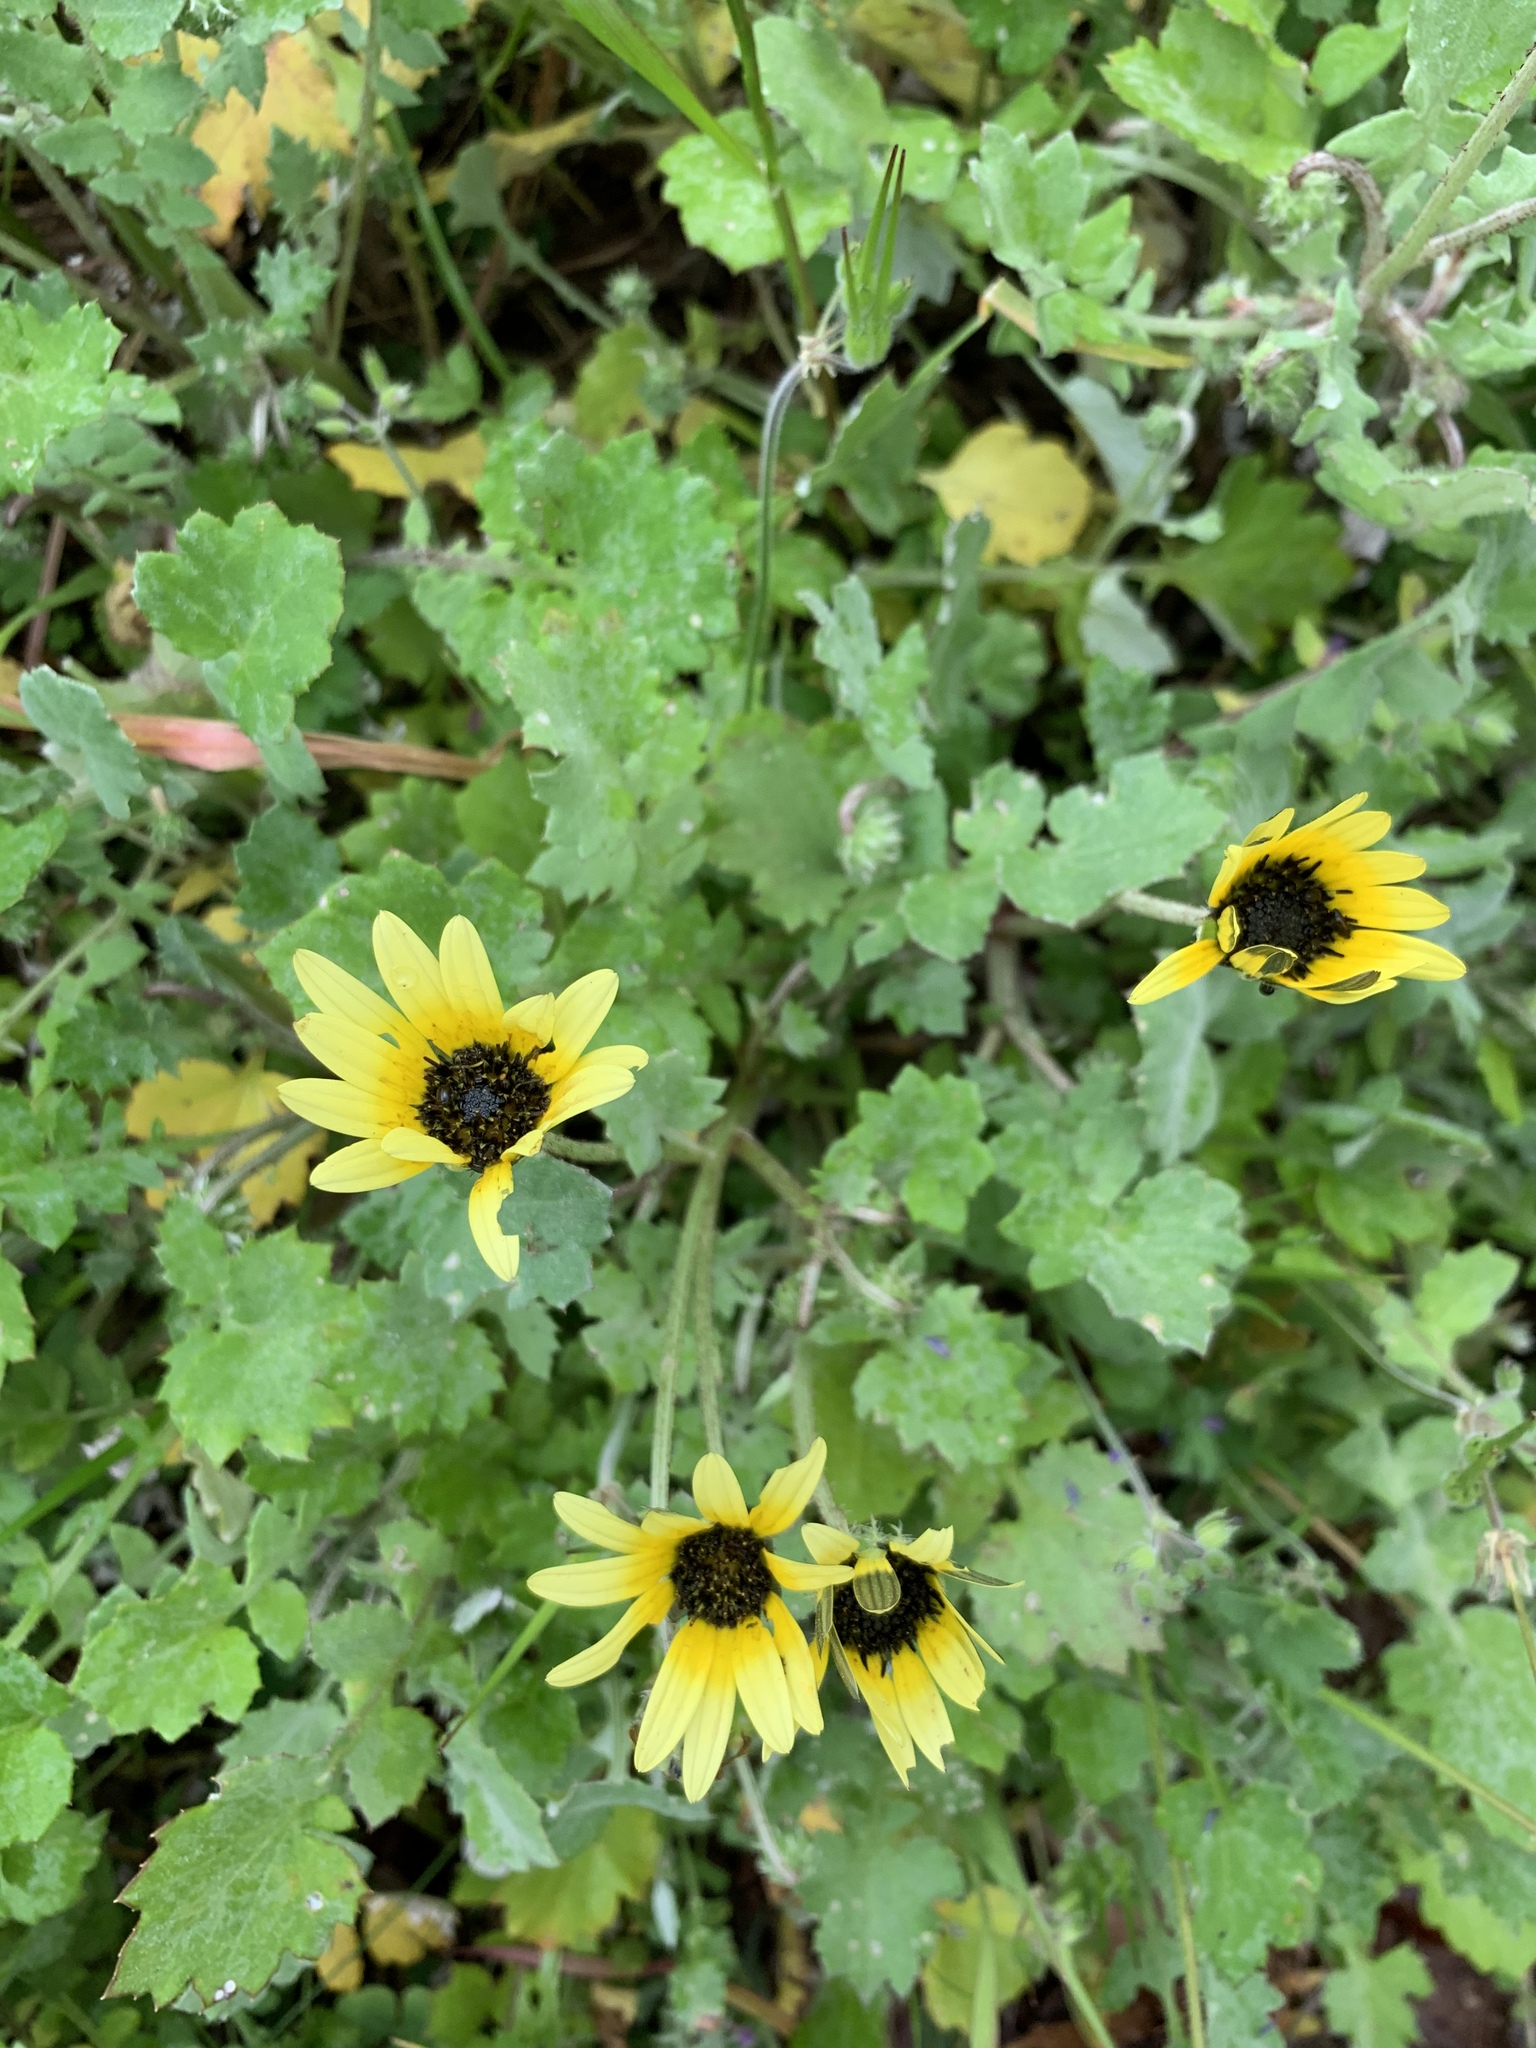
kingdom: Plantae
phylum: Tracheophyta
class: Magnoliopsida
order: Asterales
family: Asteraceae
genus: Arctotheca
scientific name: Arctotheca calendula
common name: Capeweed
